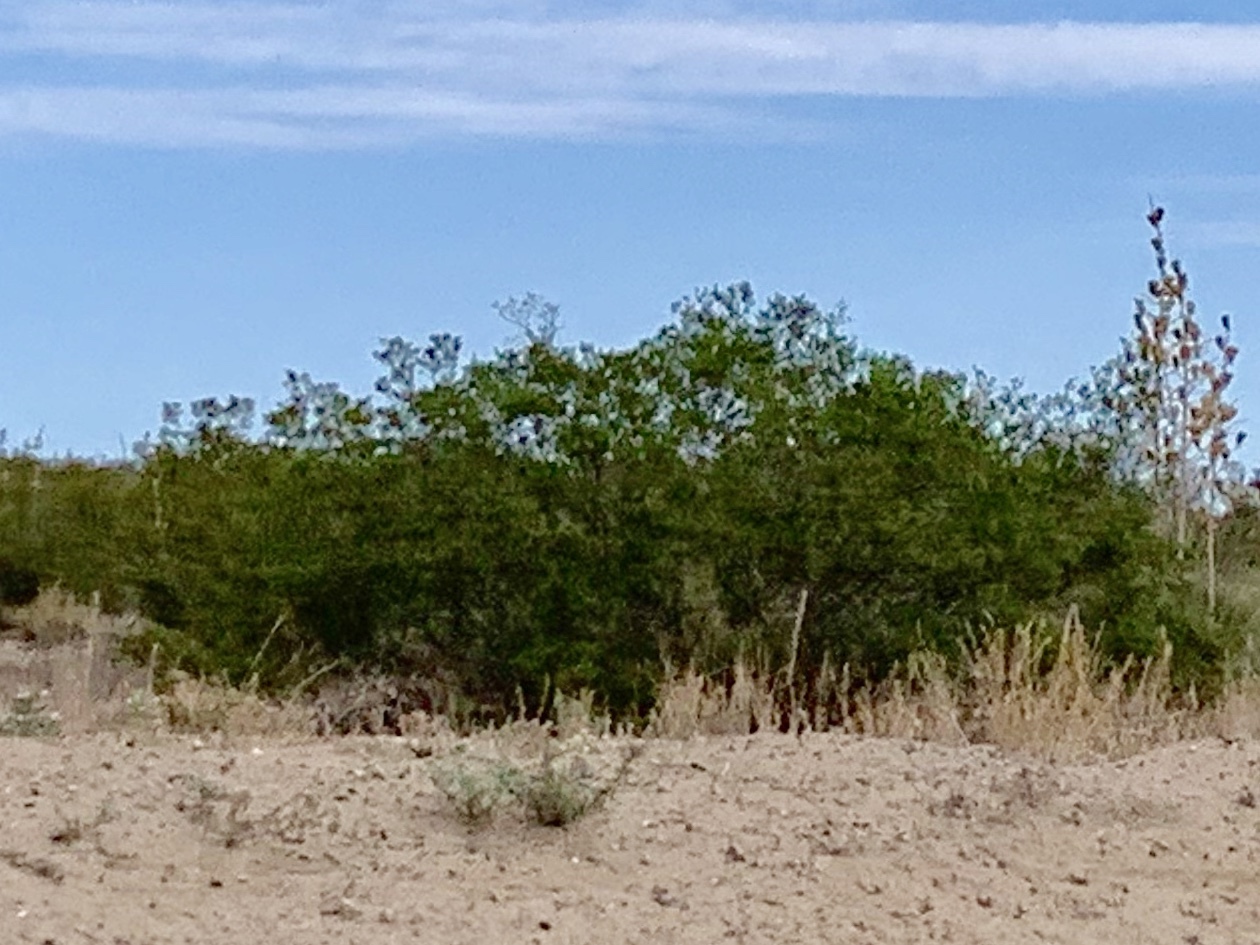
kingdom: Plantae
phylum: Tracheophyta
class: Magnoliopsida
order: Zygophyllales
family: Zygophyllaceae
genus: Larrea
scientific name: Larrea tridentata
